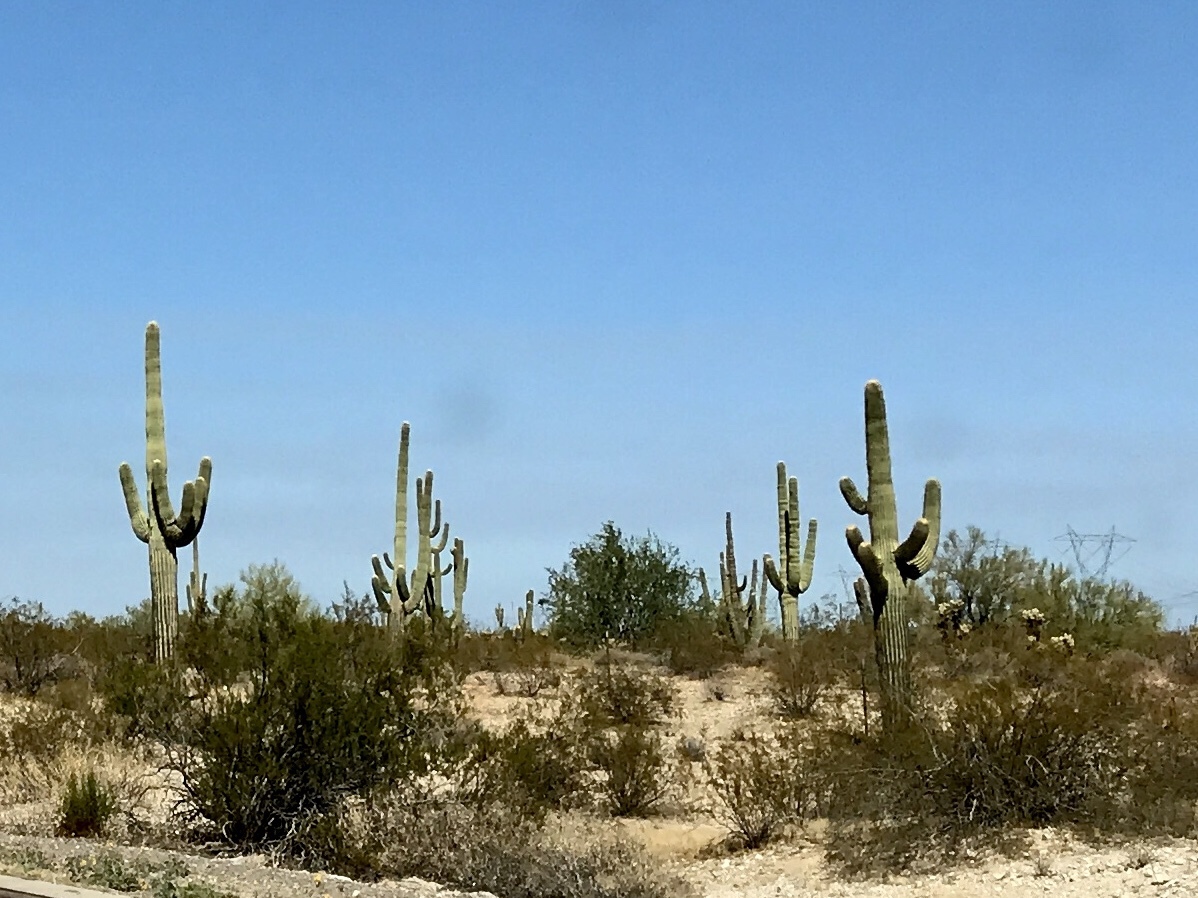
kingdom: Plantae
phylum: Tracheophyta
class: Magnoliopsida
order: Caryophyllales
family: Cactaceae
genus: Carnegiea
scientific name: Carnegiea gigantea
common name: Saguaro
